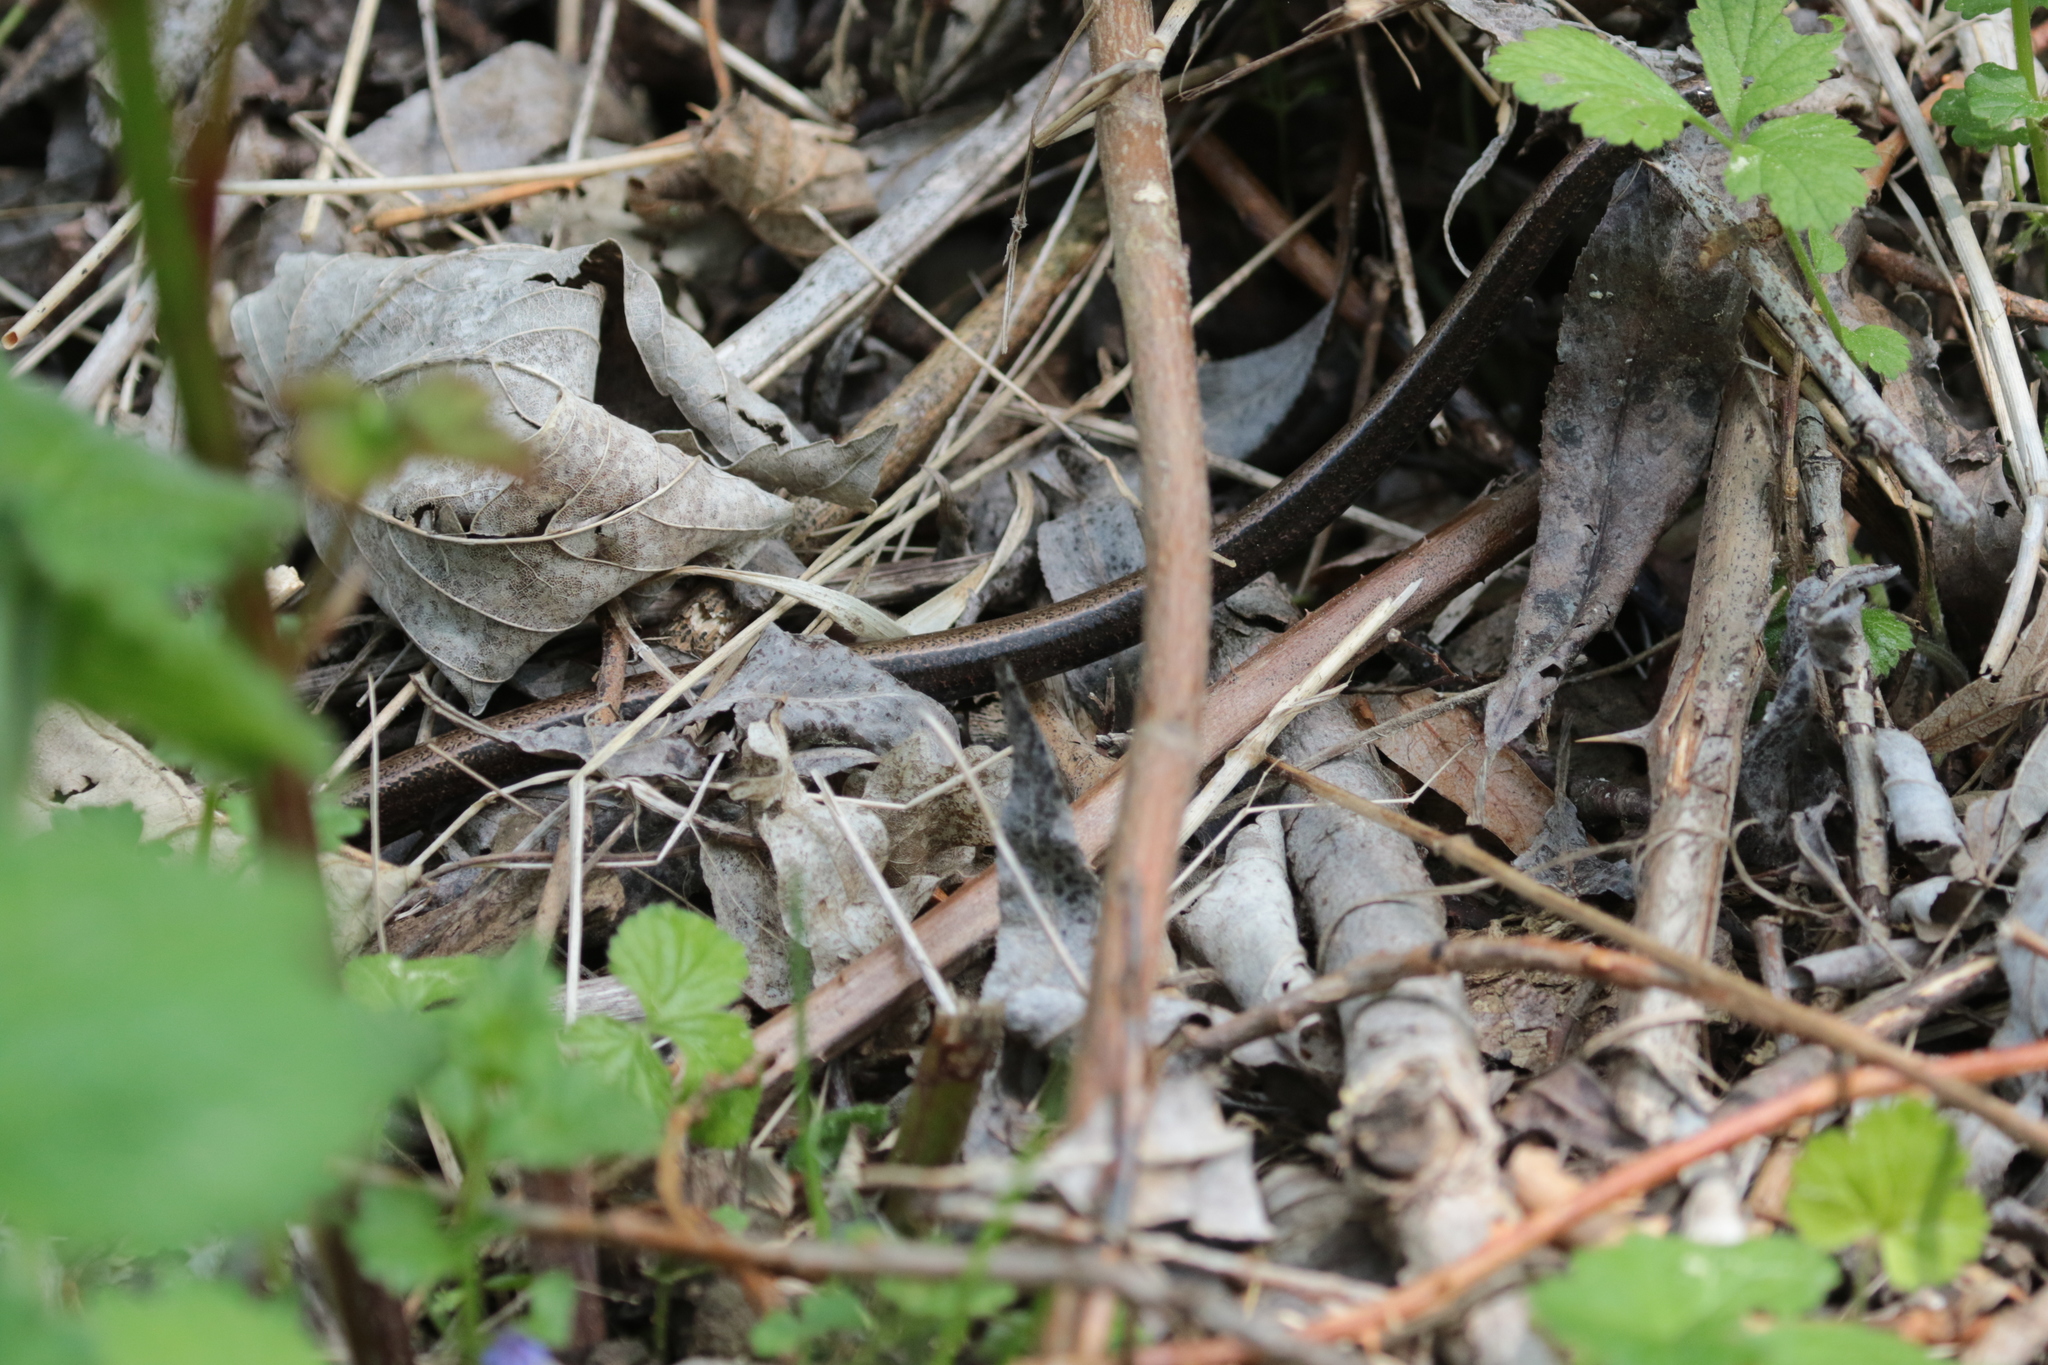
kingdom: Animalia
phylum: Chordata
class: Squamata
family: Anguidae
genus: Anguis
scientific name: Anguis fragilis
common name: Slow worm
